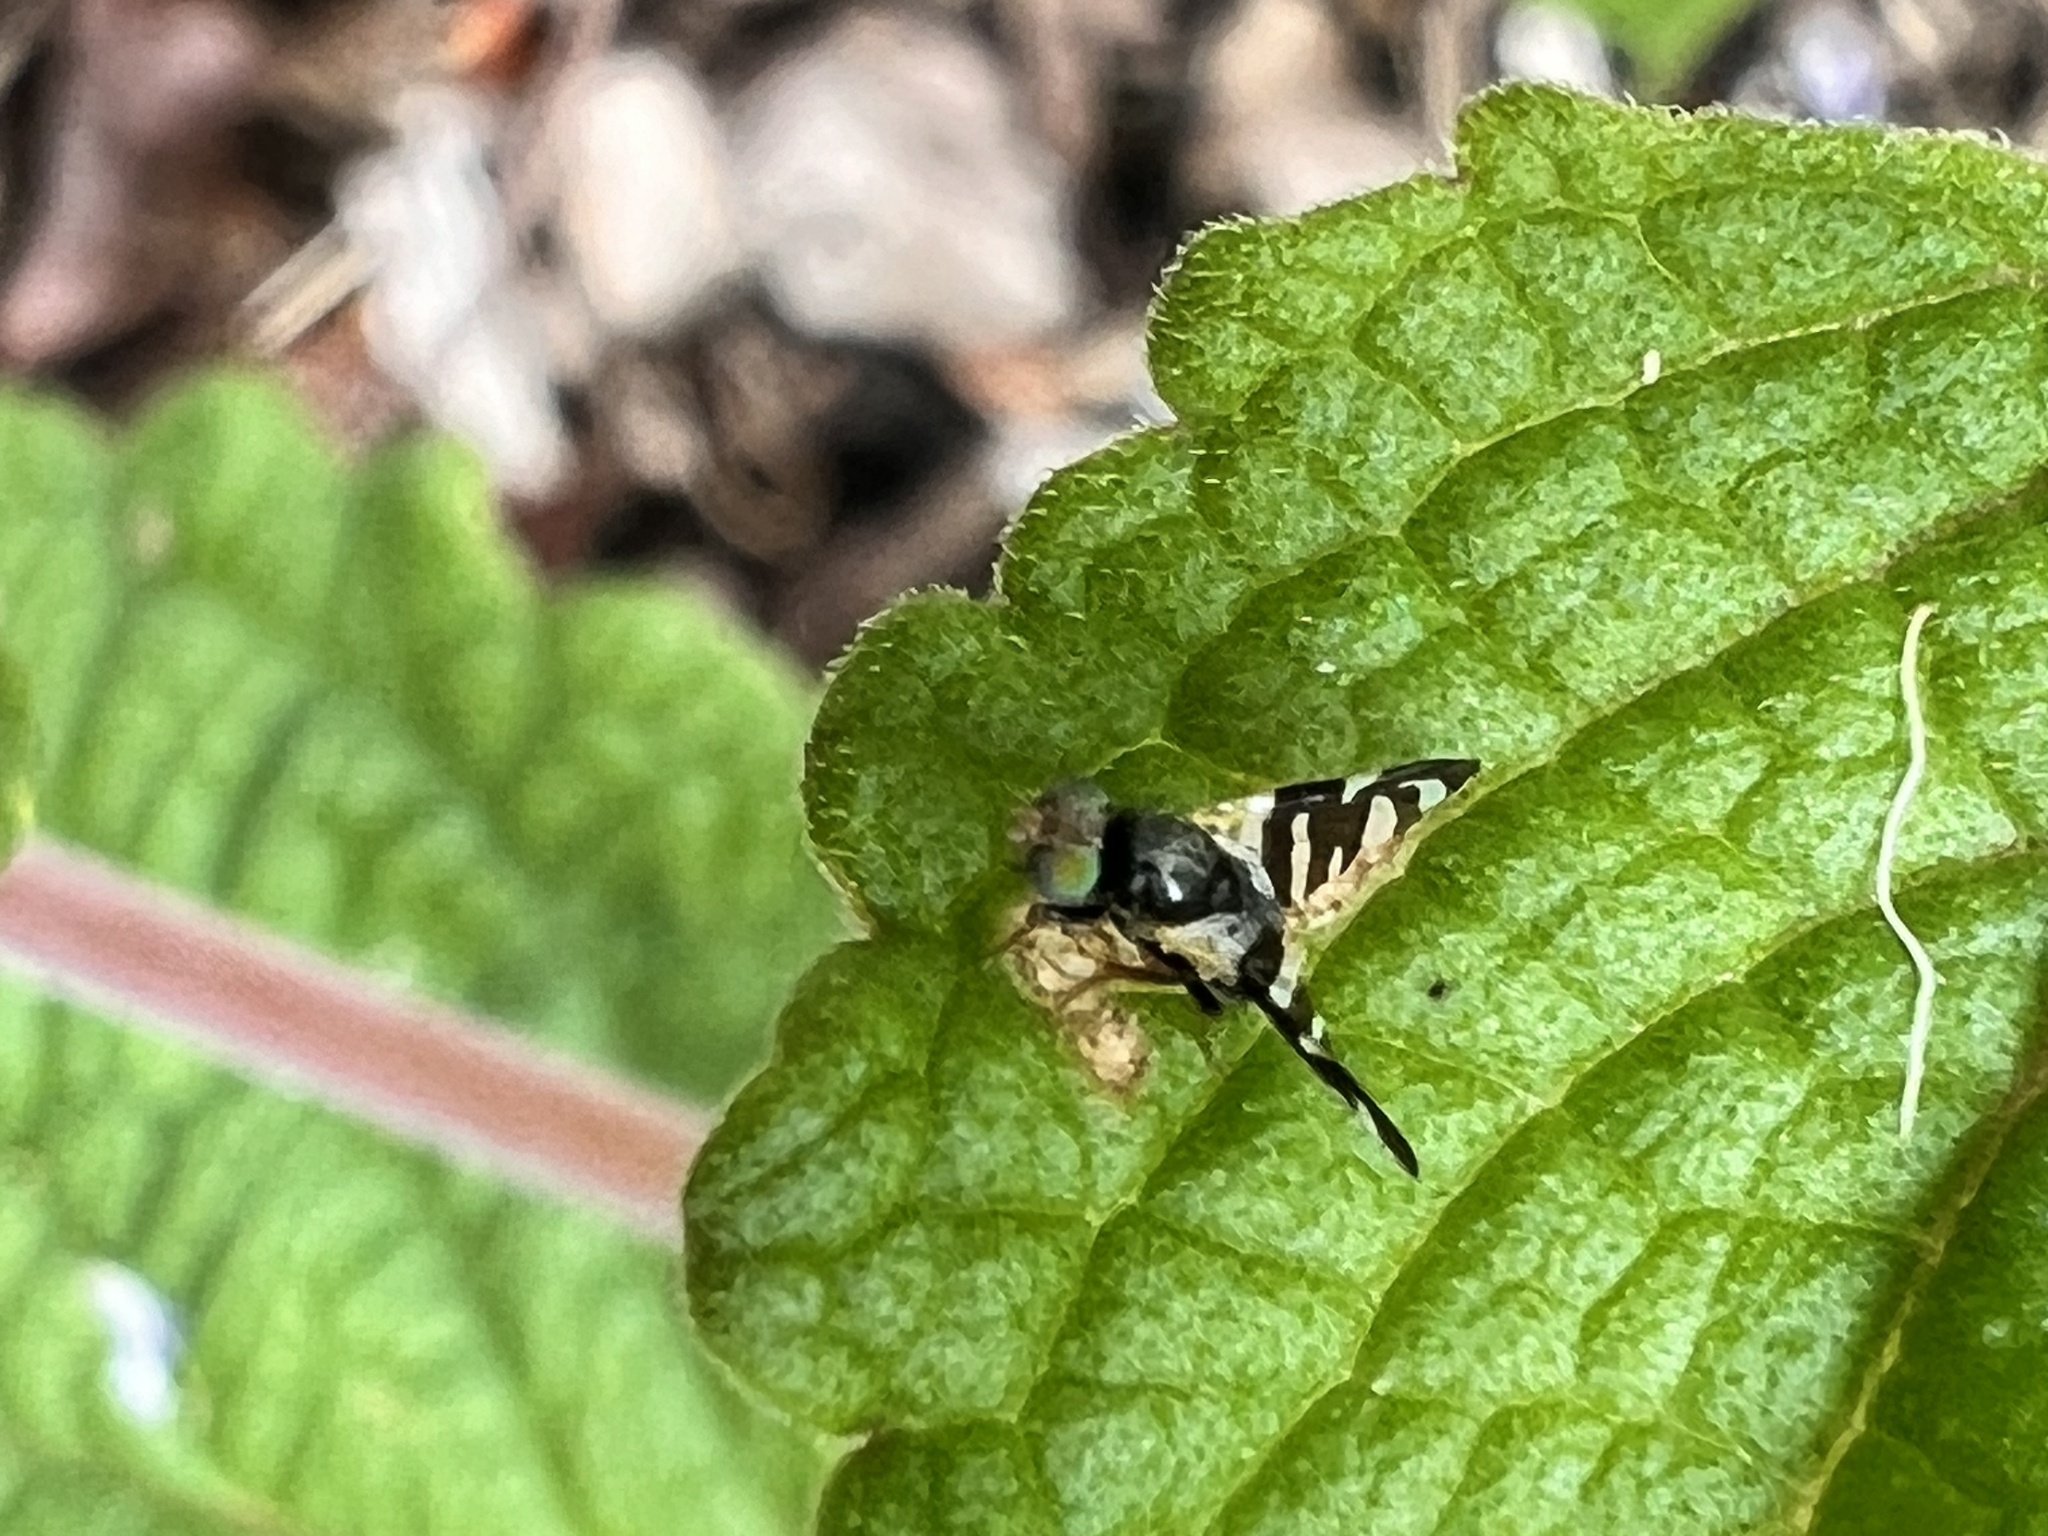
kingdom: Animalia
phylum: Arthropoda
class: Insecta
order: Diptera
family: Tephritidae
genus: Sphaeniscus
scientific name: Sphaeniscus atilius
